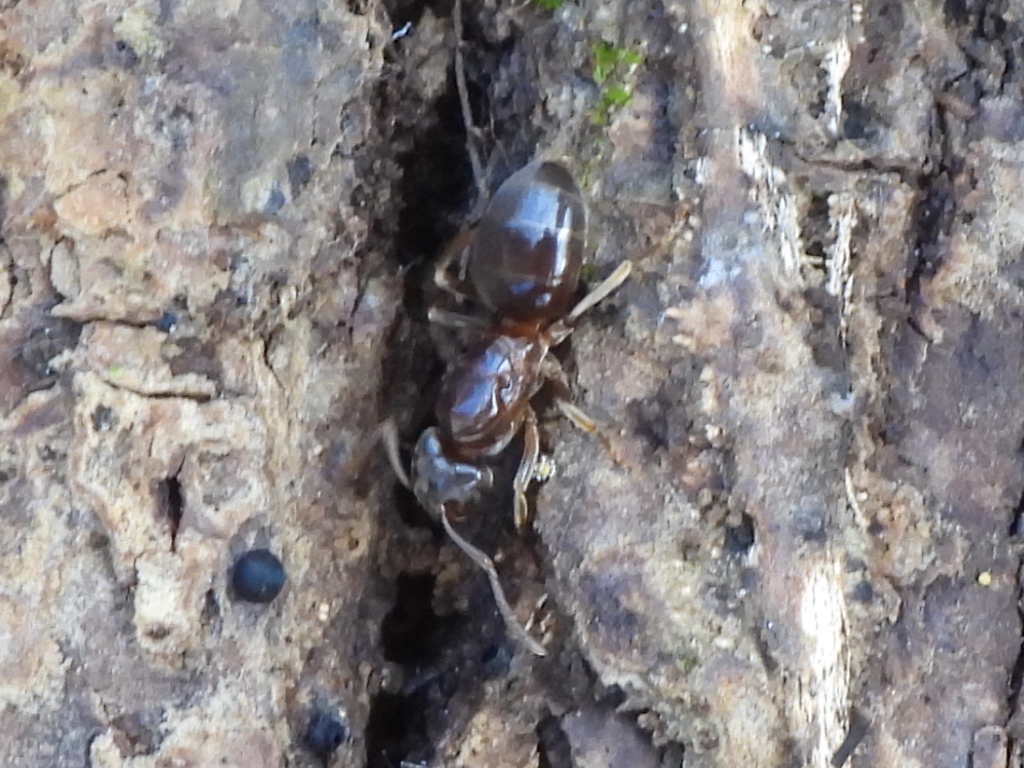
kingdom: Animalia
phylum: Arthropoda
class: Insecta
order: Hymenoptera
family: Formicidae
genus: Lasius
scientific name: Lasius aphidicola
